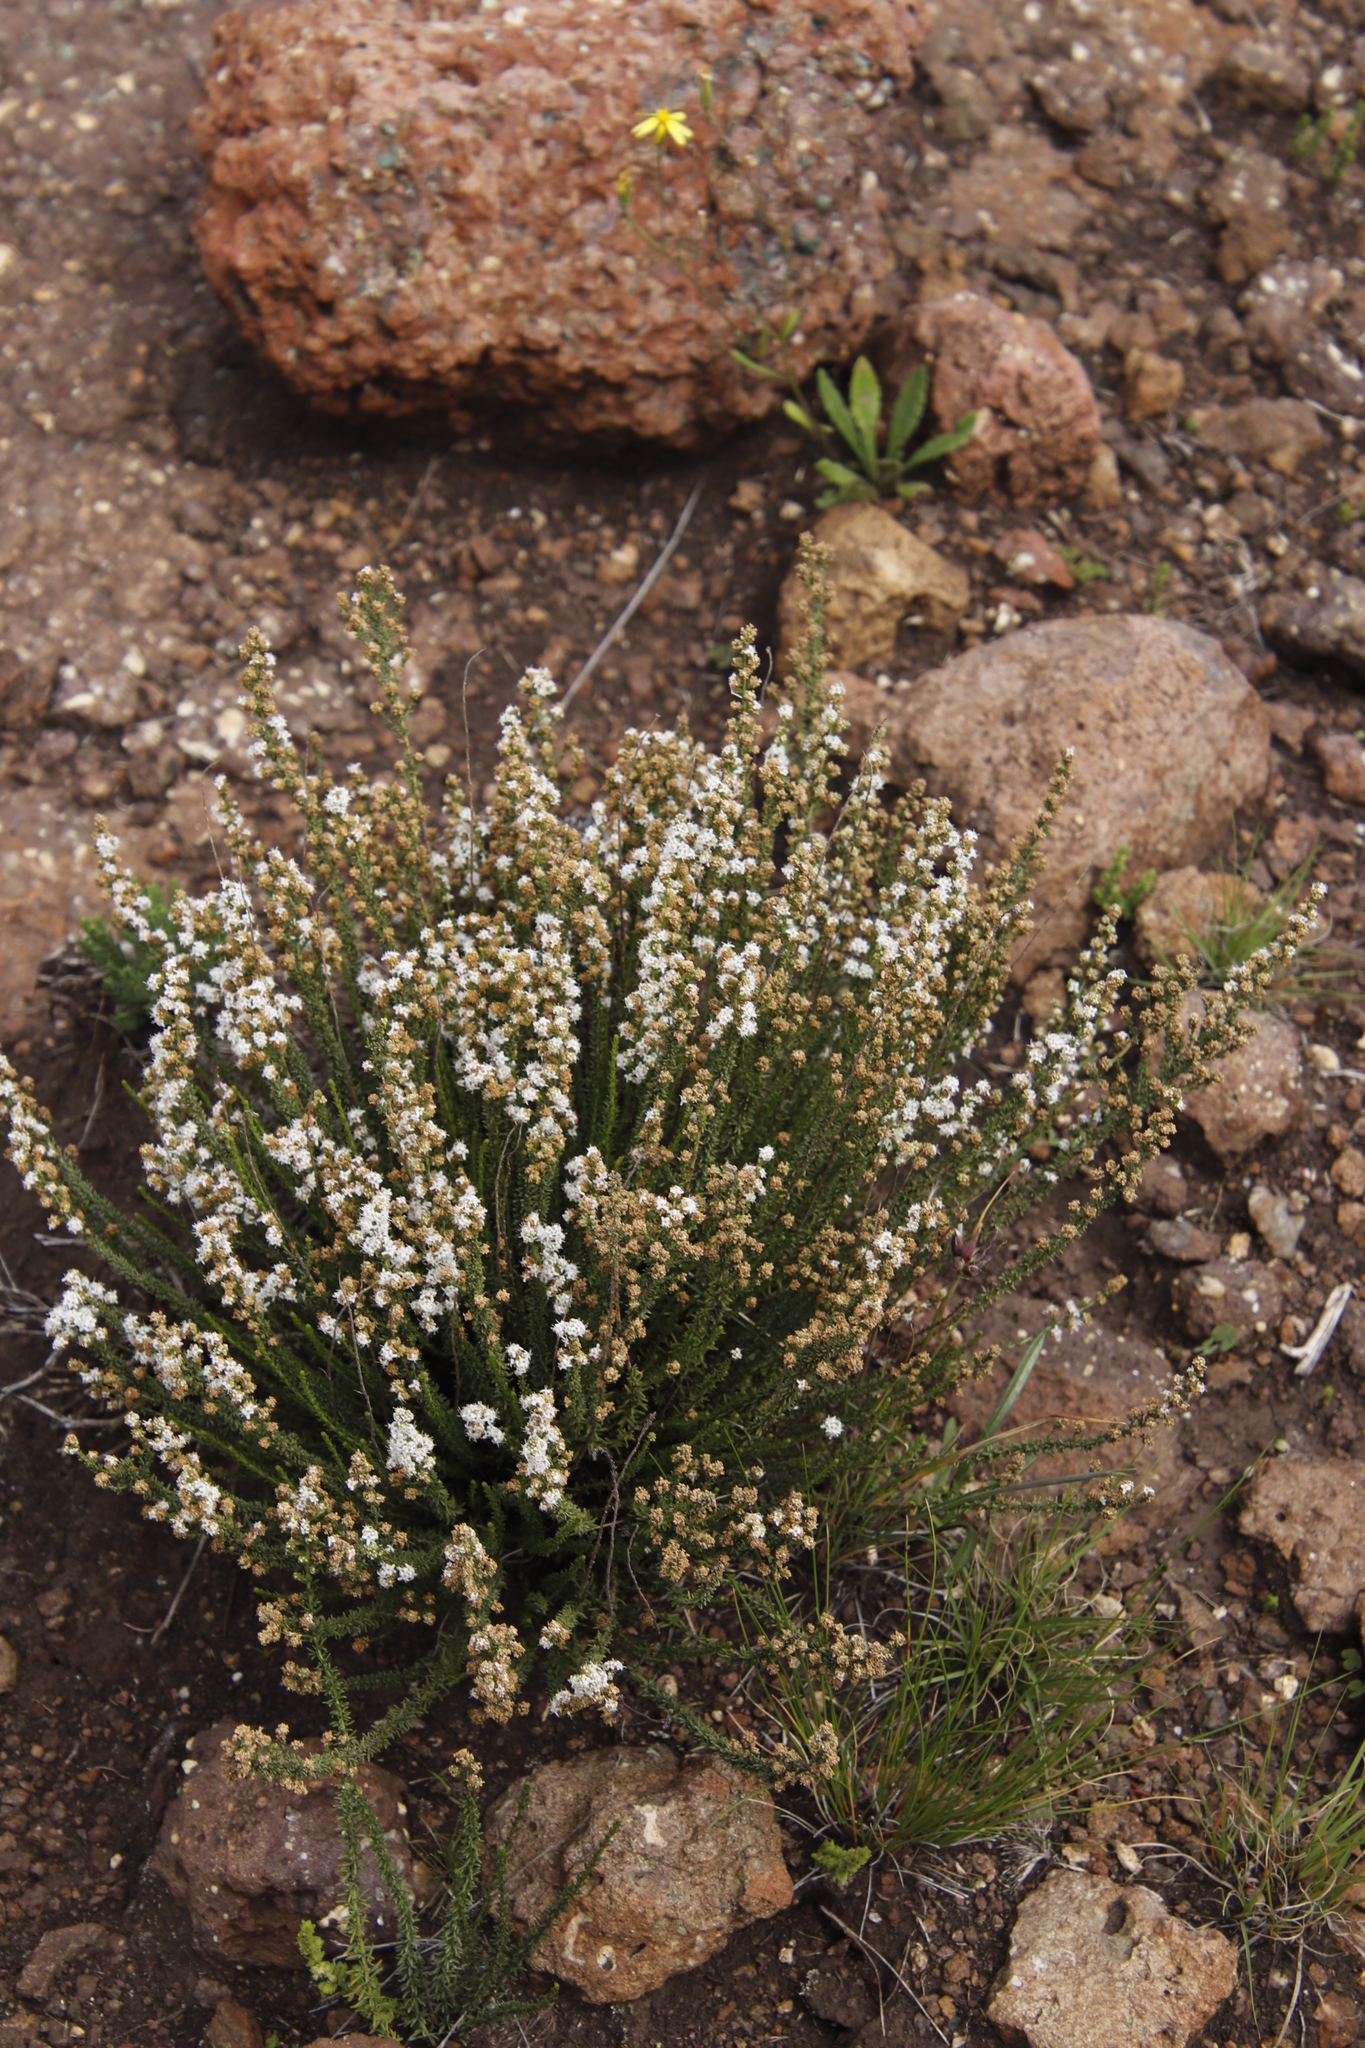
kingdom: Plantae
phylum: Tracheophyta
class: Magnoliopsida
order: Lamiales
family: Scrophulariaceae
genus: Selago
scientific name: Selago densiflora
